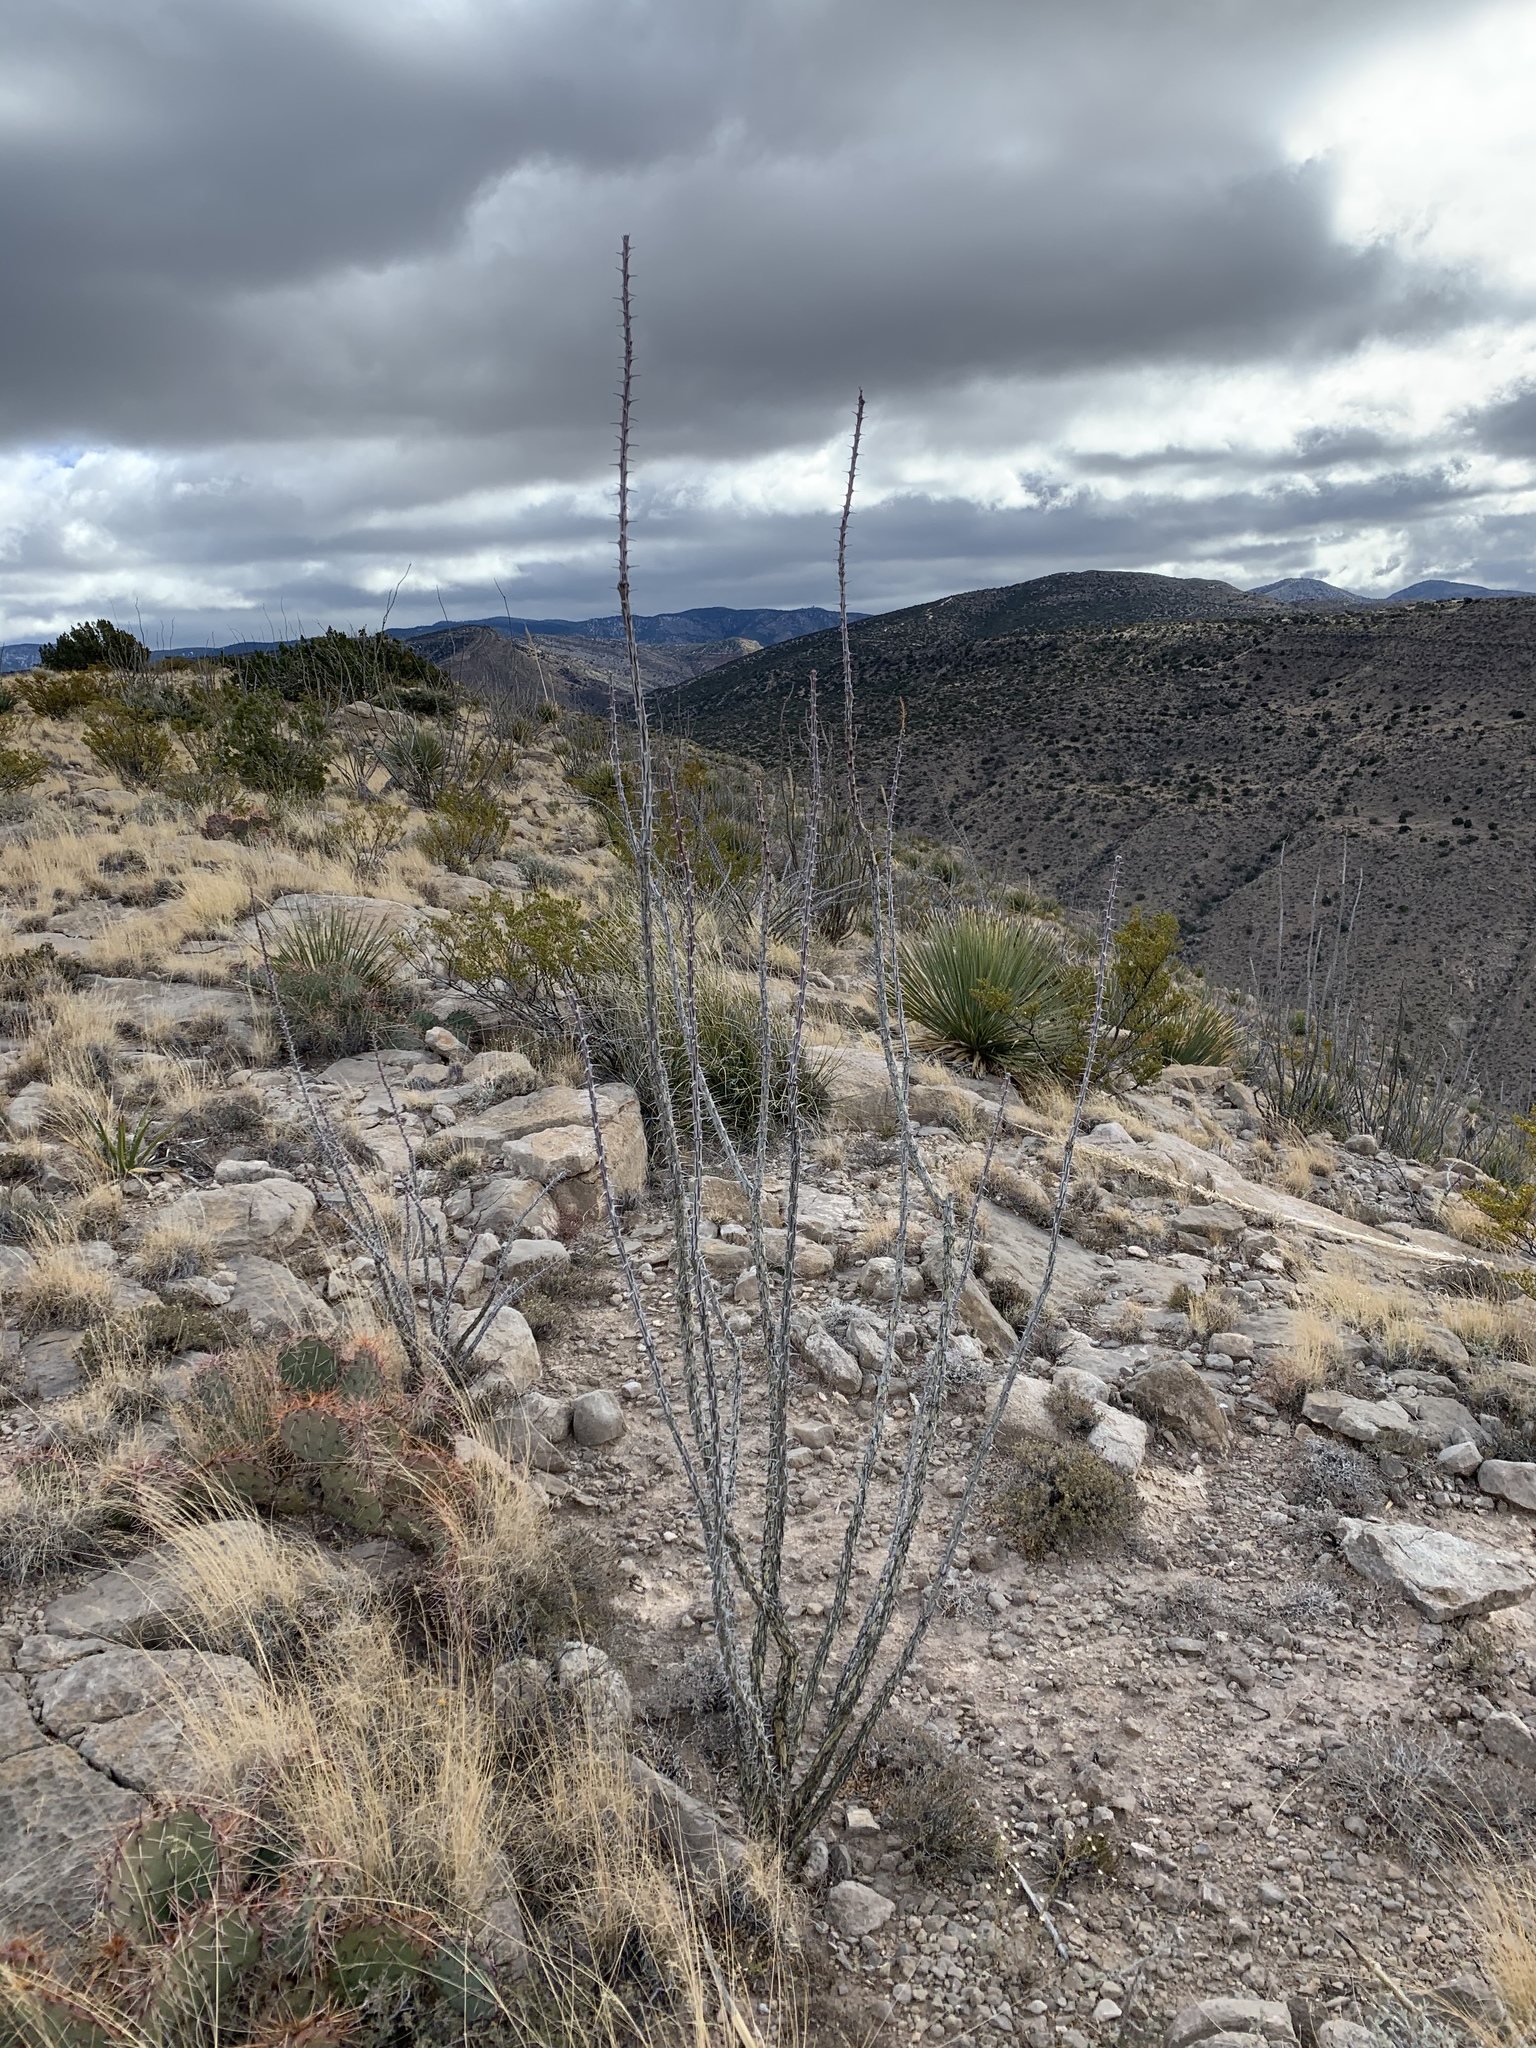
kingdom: Plantae
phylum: Tracheophyta
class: Magnoliopsida
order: Ericales
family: Fouquieriaceae
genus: Fouquieria
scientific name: Fouquieria splendens
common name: Vine-cactus
